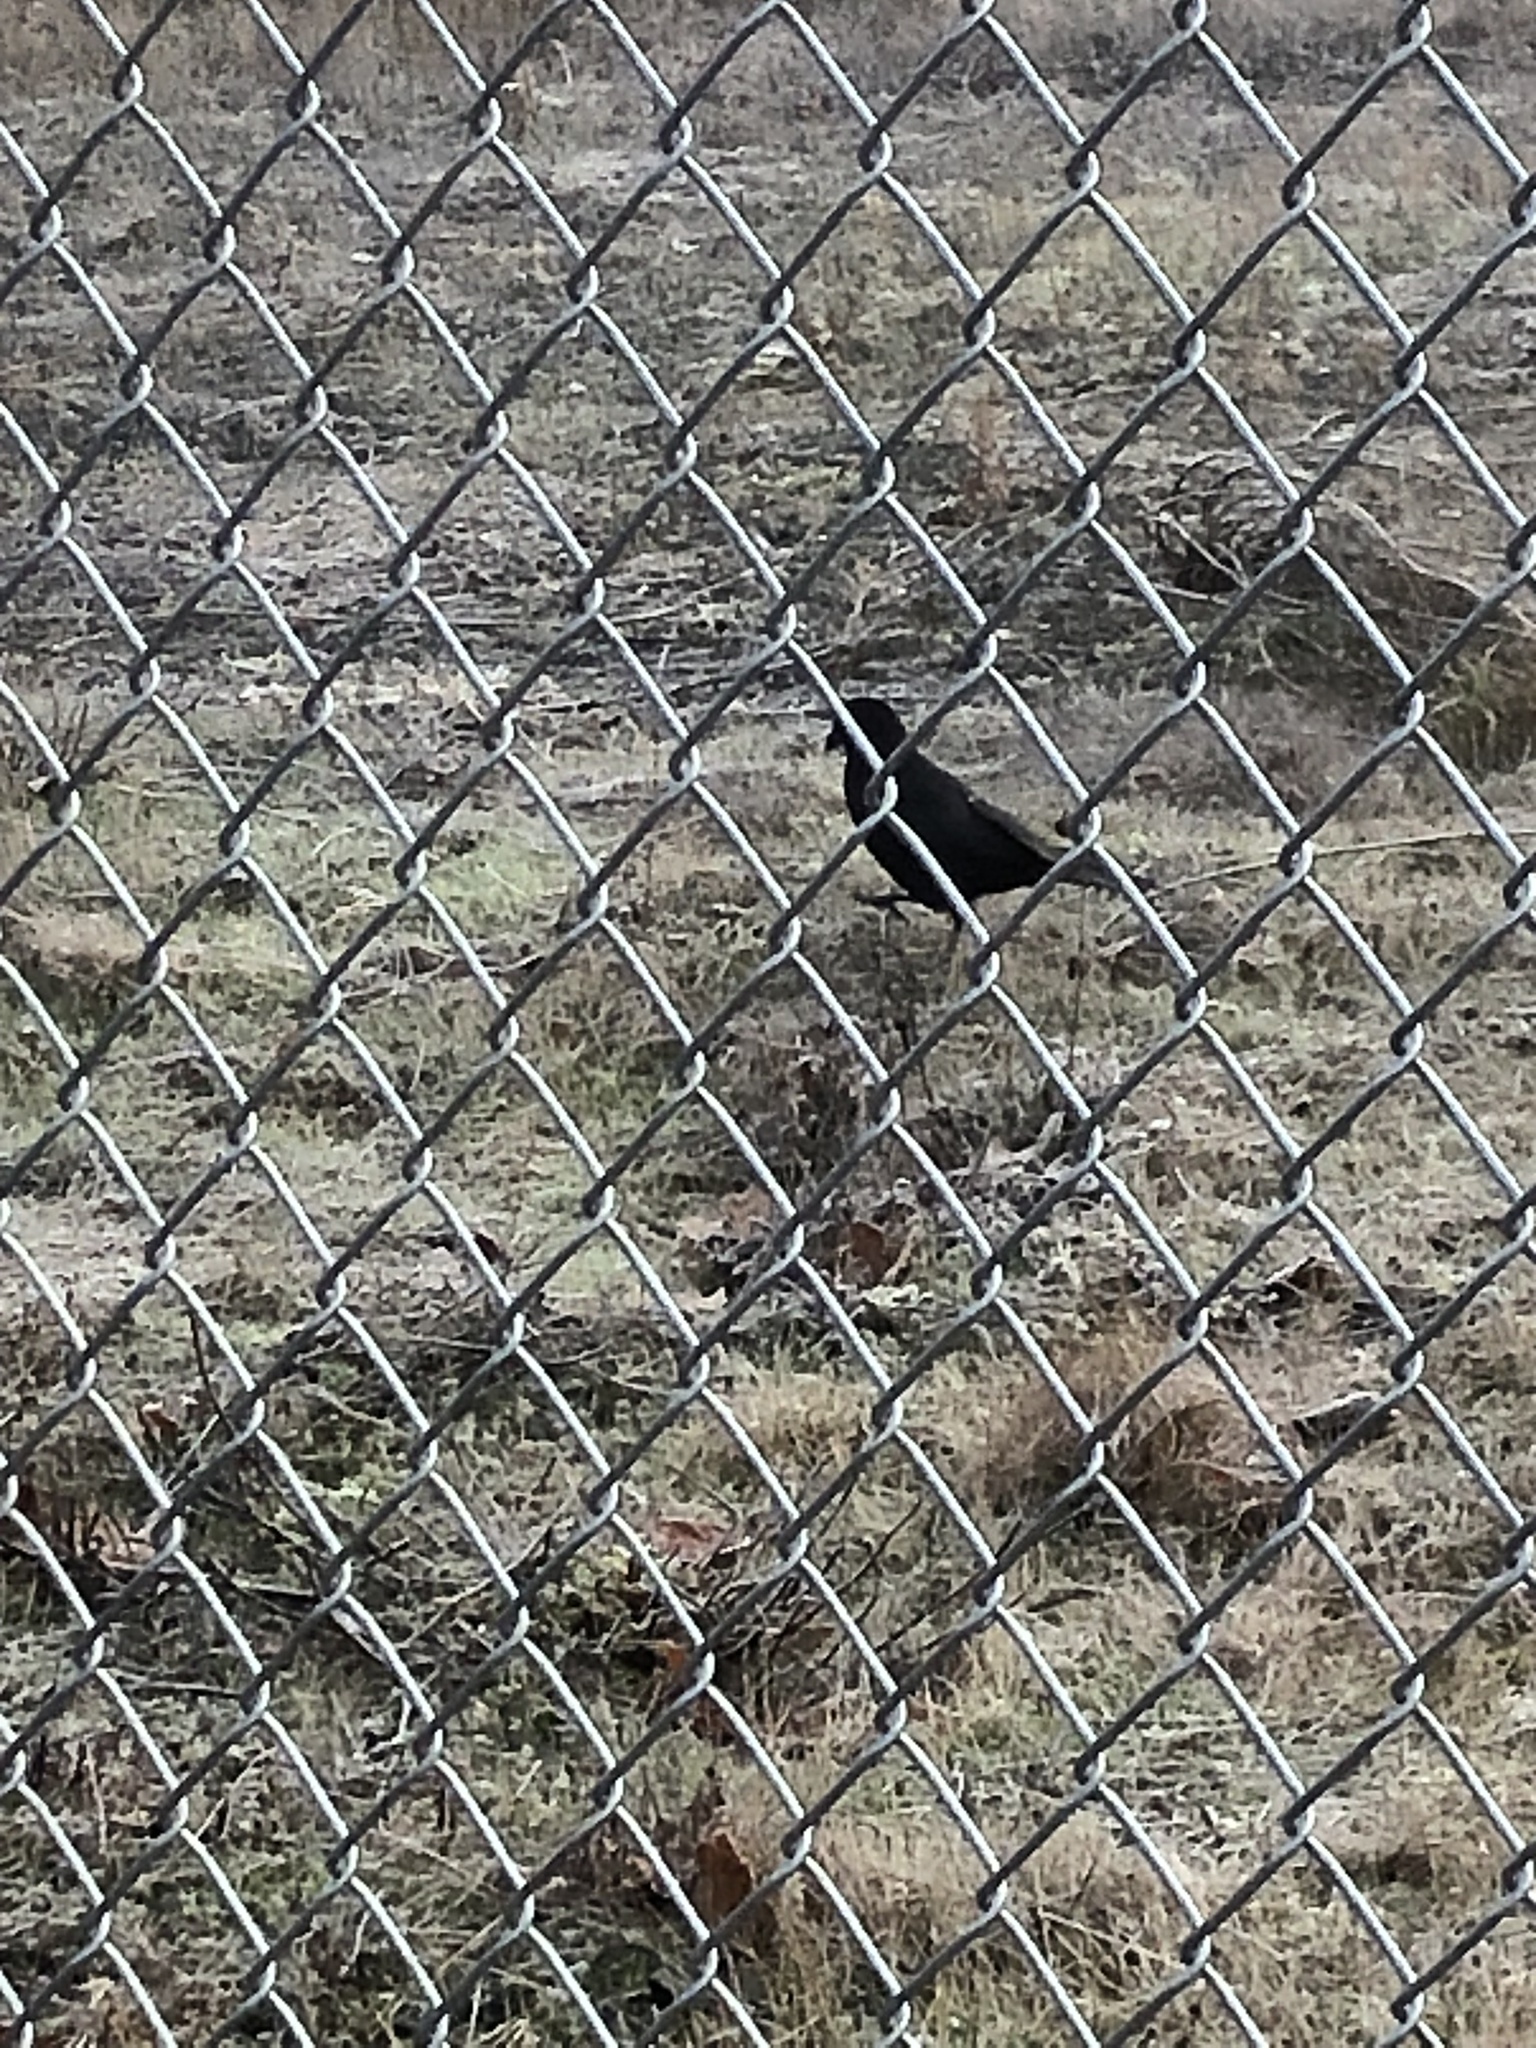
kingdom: Animalia
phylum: Chordata
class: Aves
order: Passeriformes
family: Corvidae
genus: Corvus
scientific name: Corvus brachyrhynchos
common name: American crow
